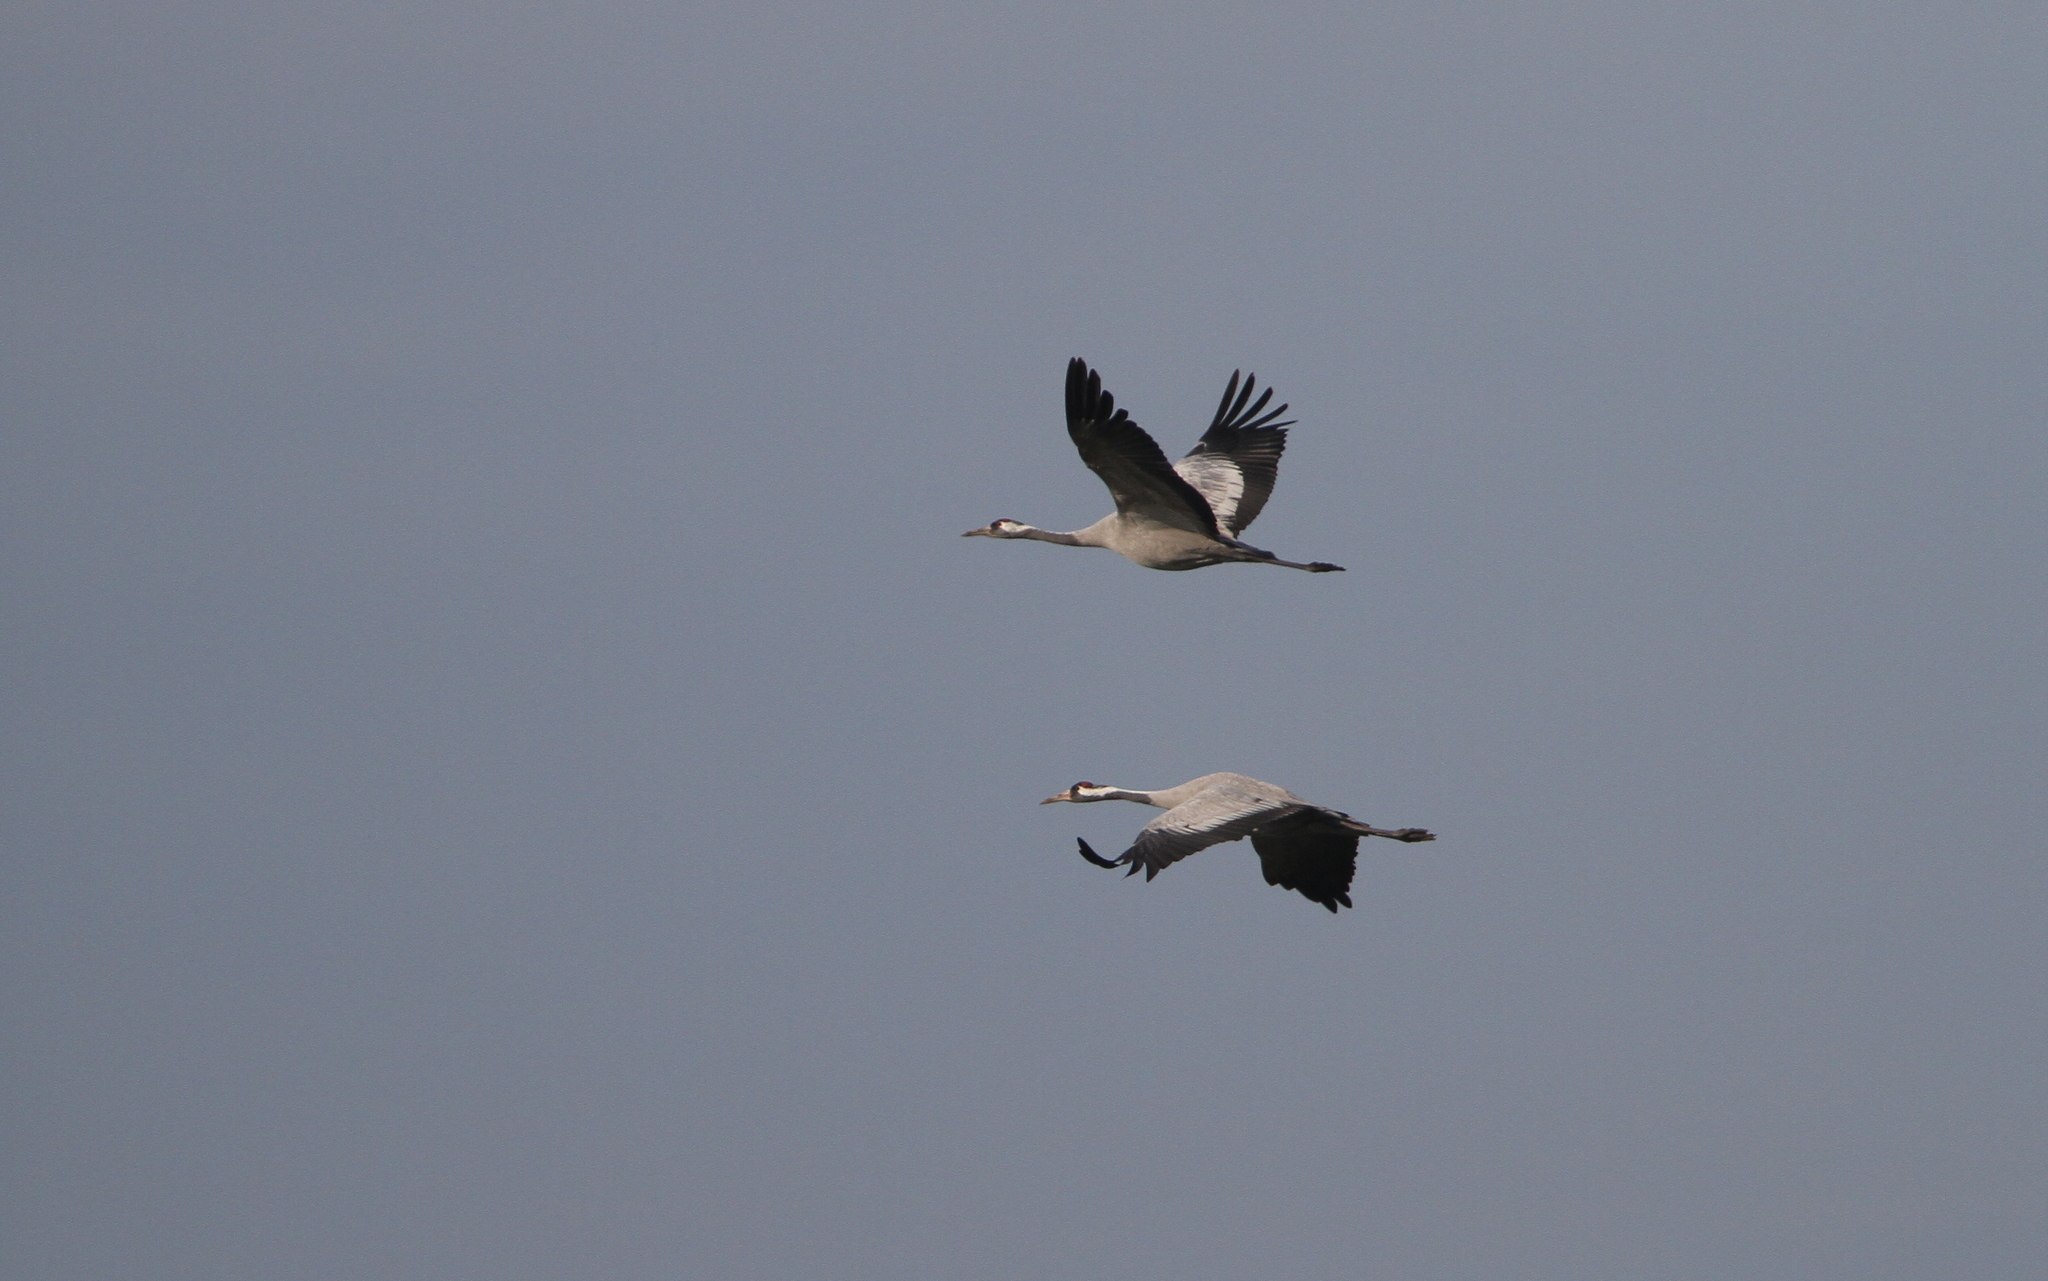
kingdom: Animalia
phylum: Chordata
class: Aves
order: Gruiformes
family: Gruidae
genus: Grus
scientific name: Grus grus
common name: Common crane
